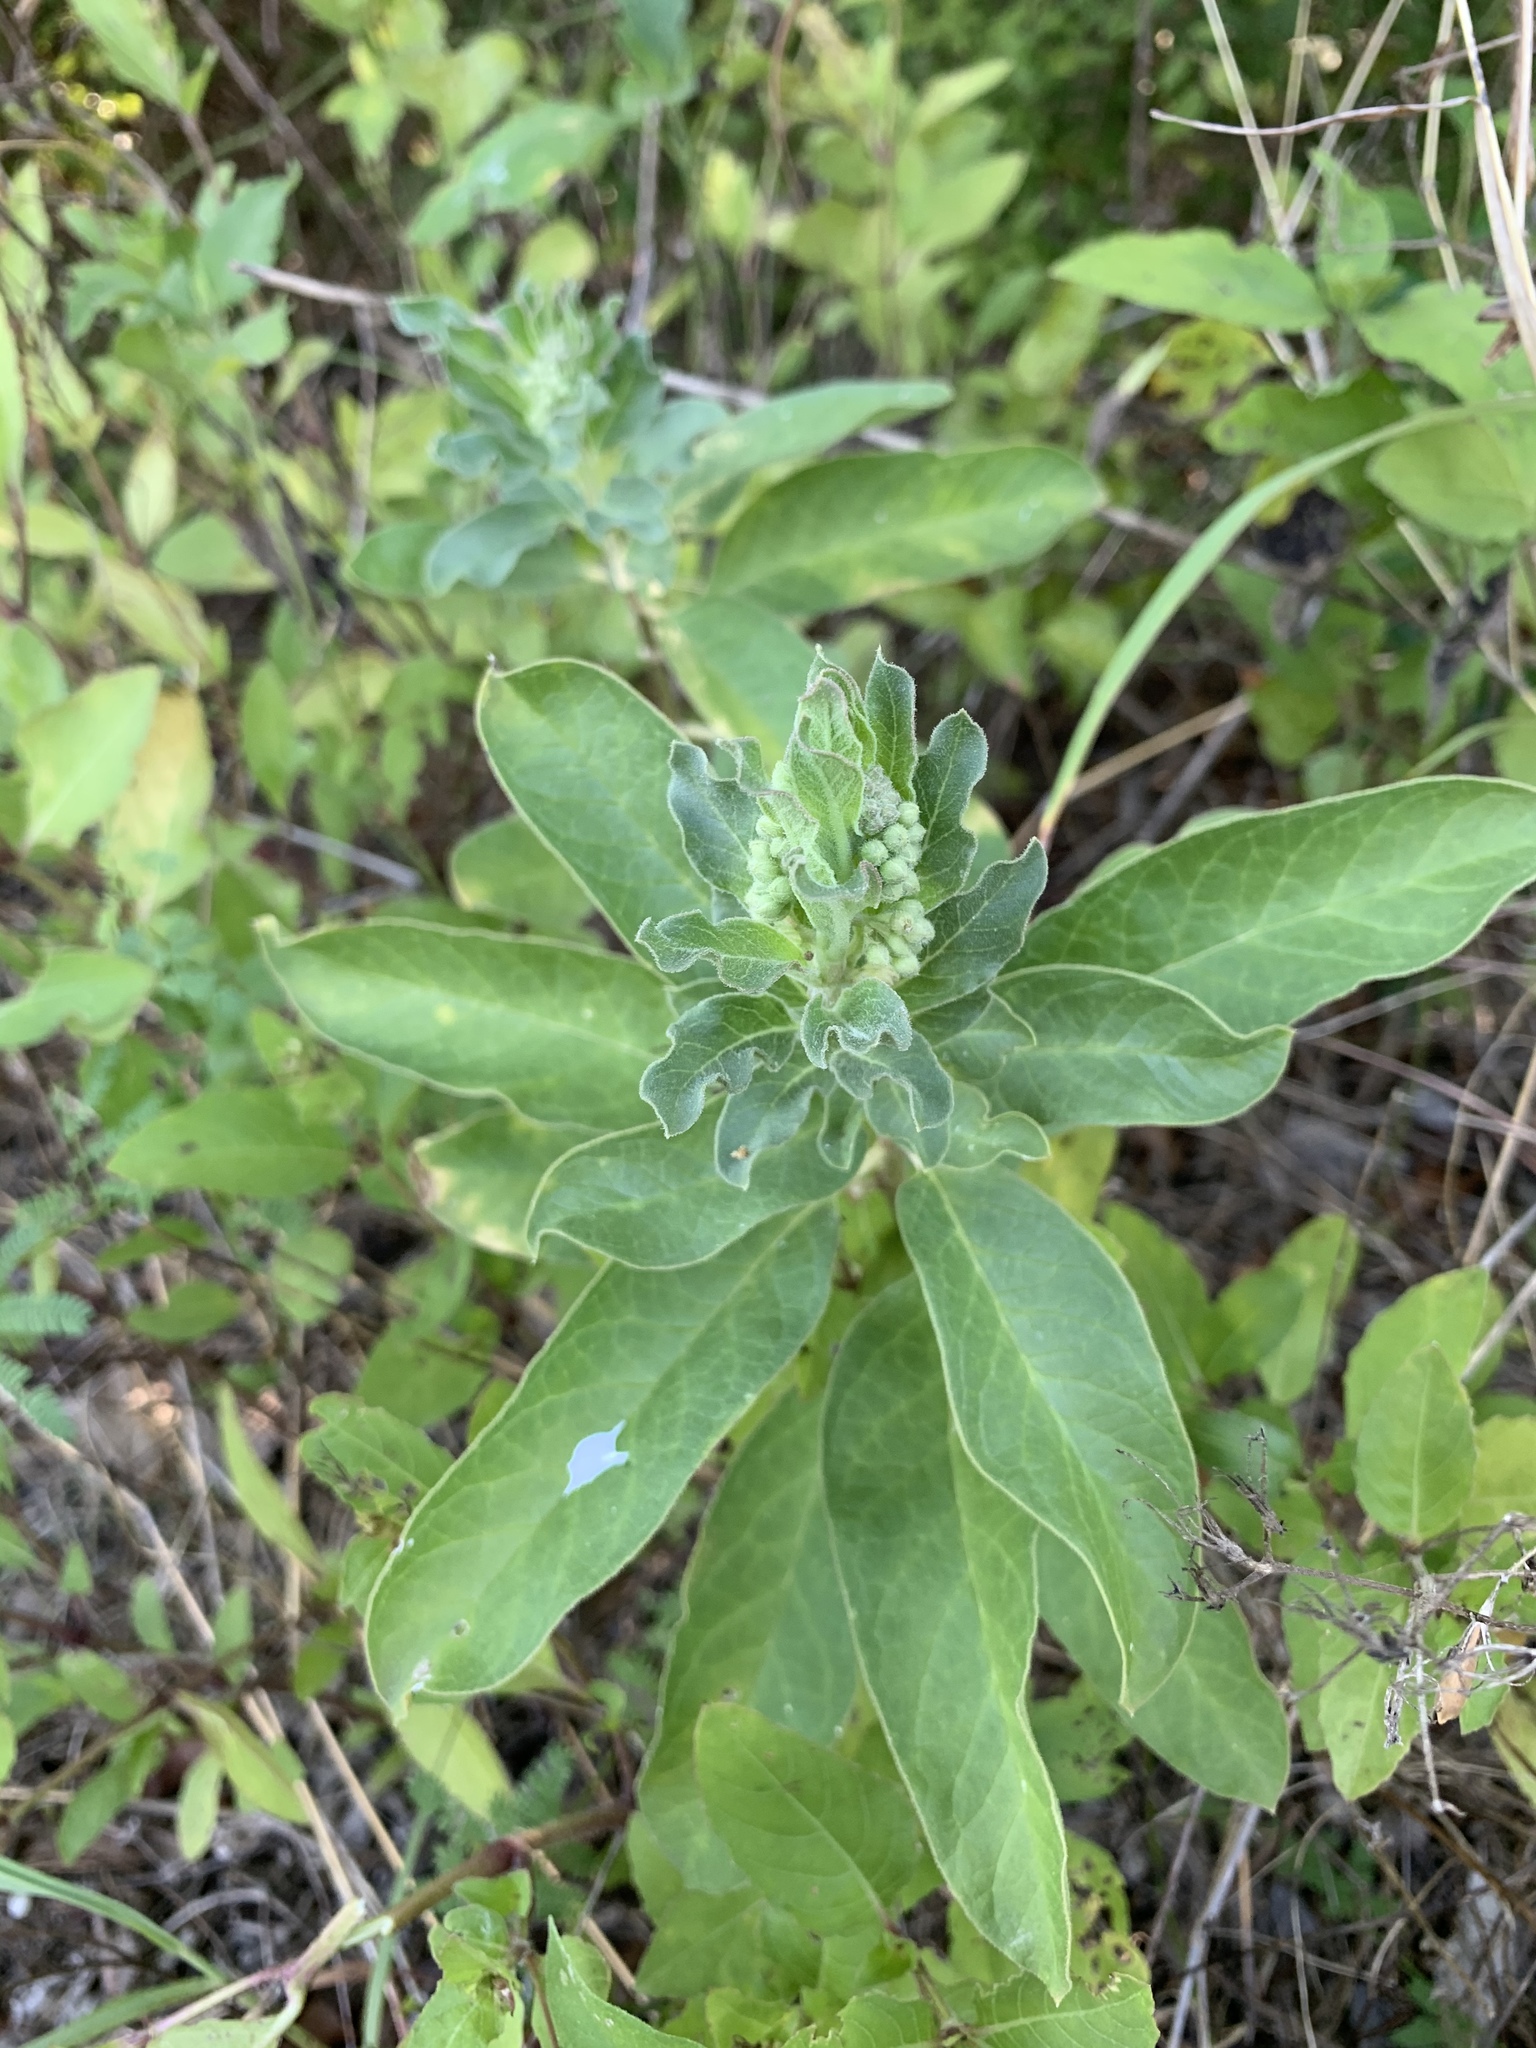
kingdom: Plantae
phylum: Tracheophyta
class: Magnoliopsida
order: Gentianales
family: Apocynaceae
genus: Asclepias
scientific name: Asclepias oenotheroides
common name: Zizotes milkweed
